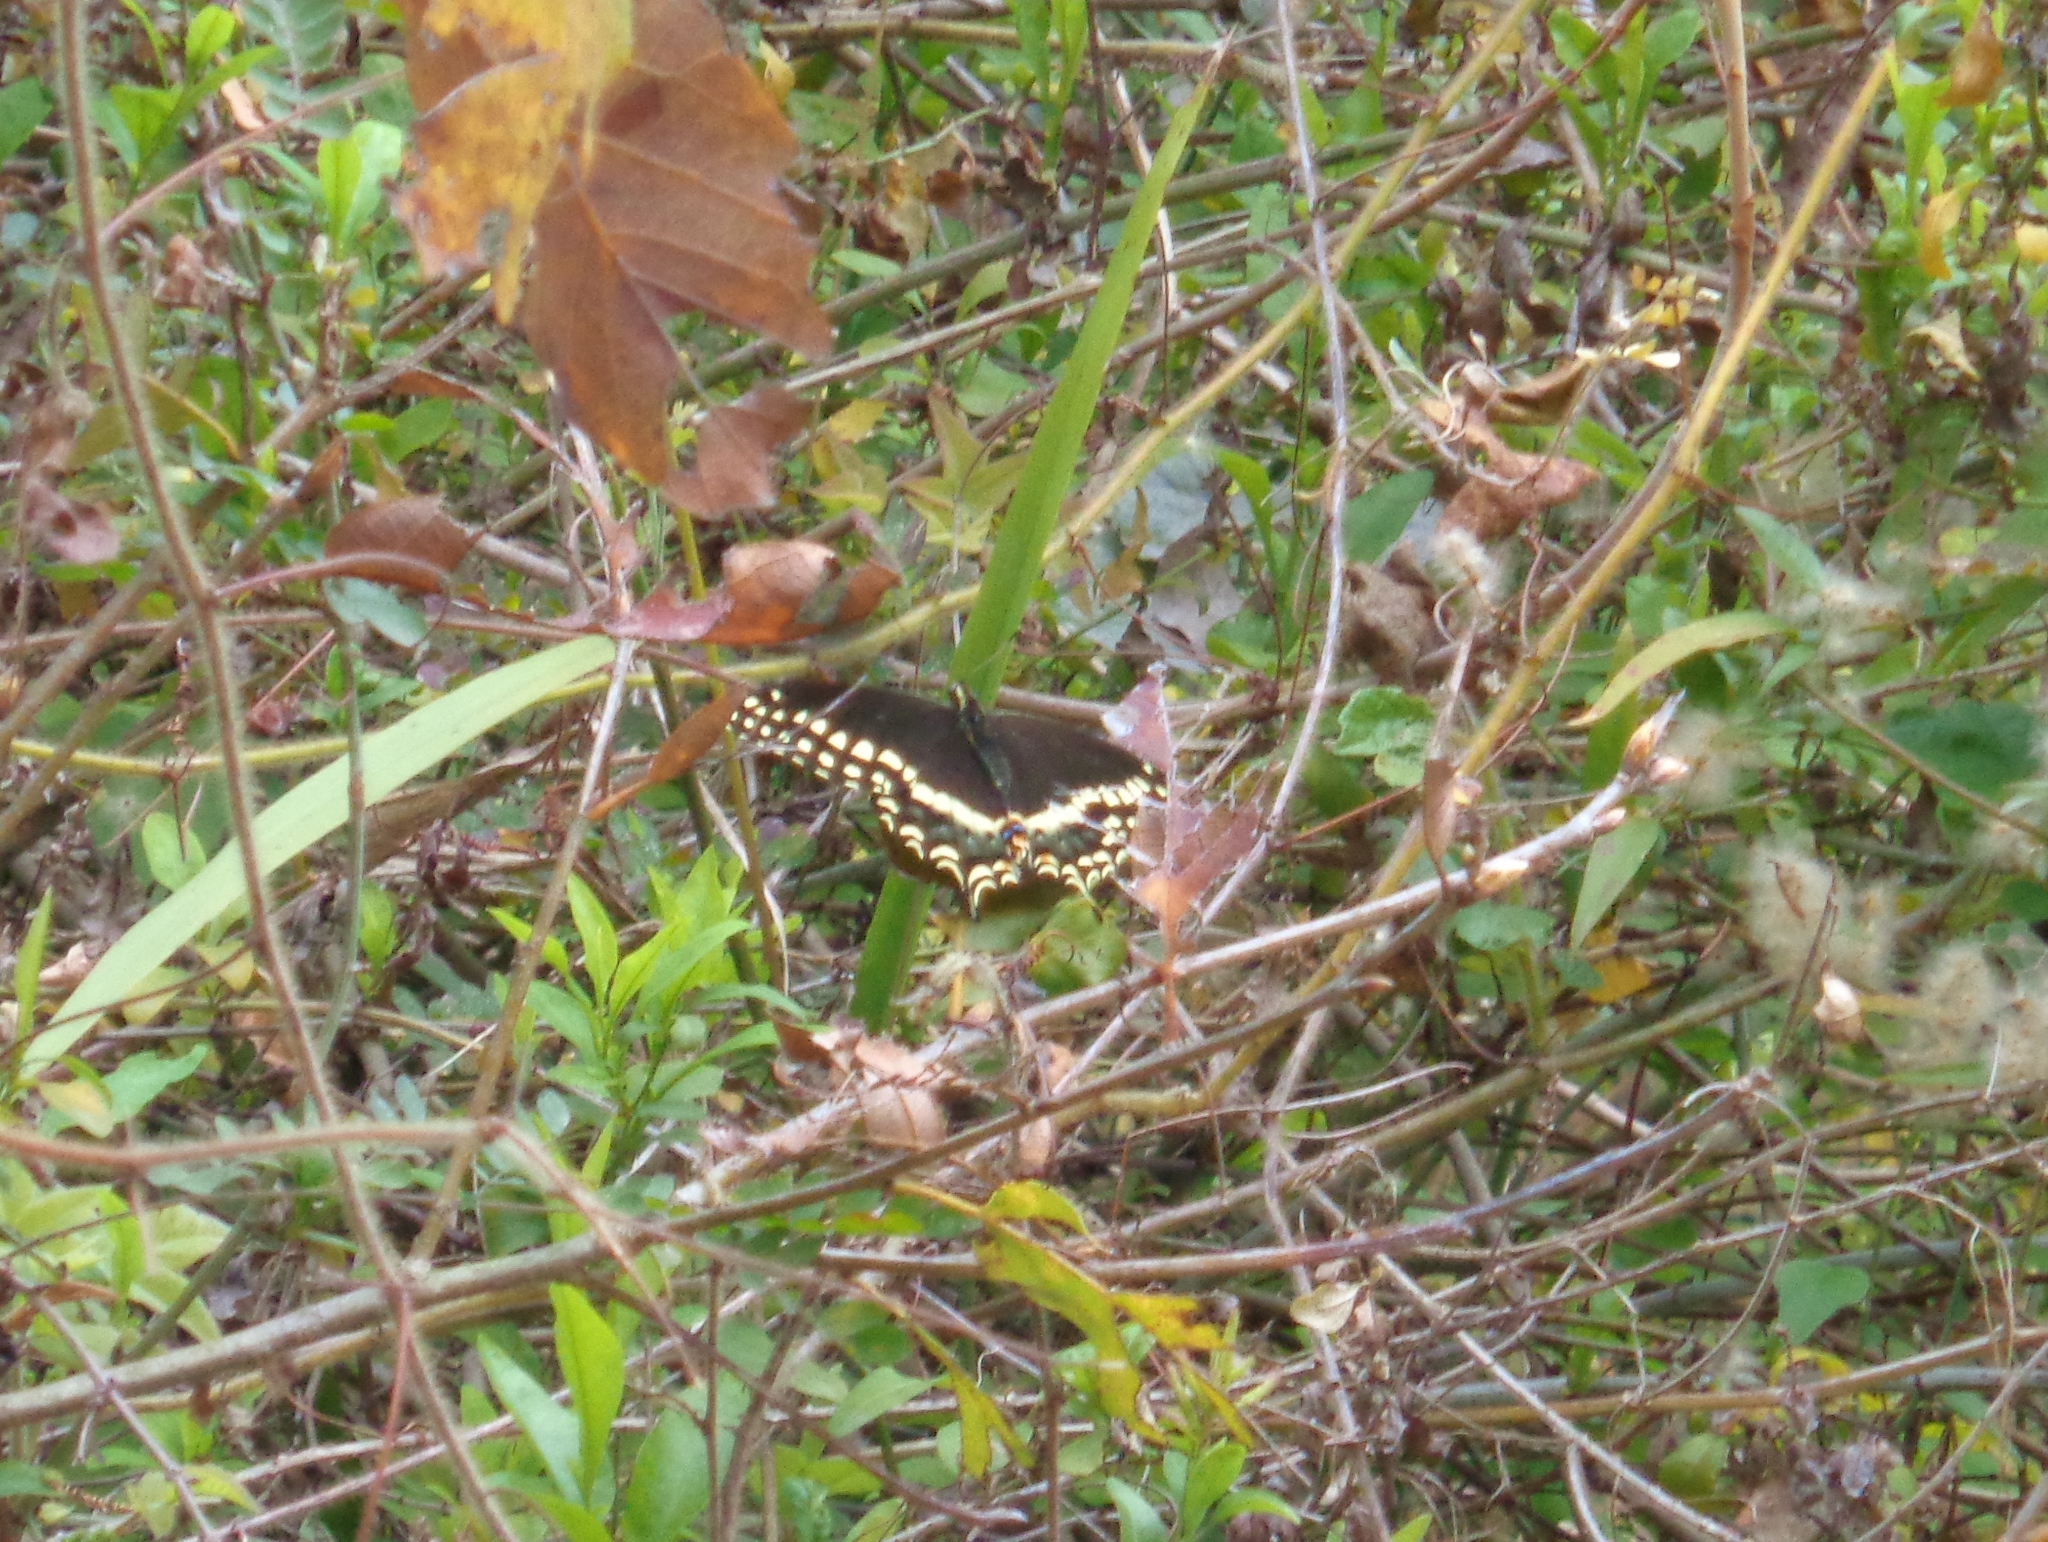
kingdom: Animalia
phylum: Arthropoda
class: Insecta
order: Lepidoptera
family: Papilionidae
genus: Papilio
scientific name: Papilio palamedes
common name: Palamedes swallowtail
